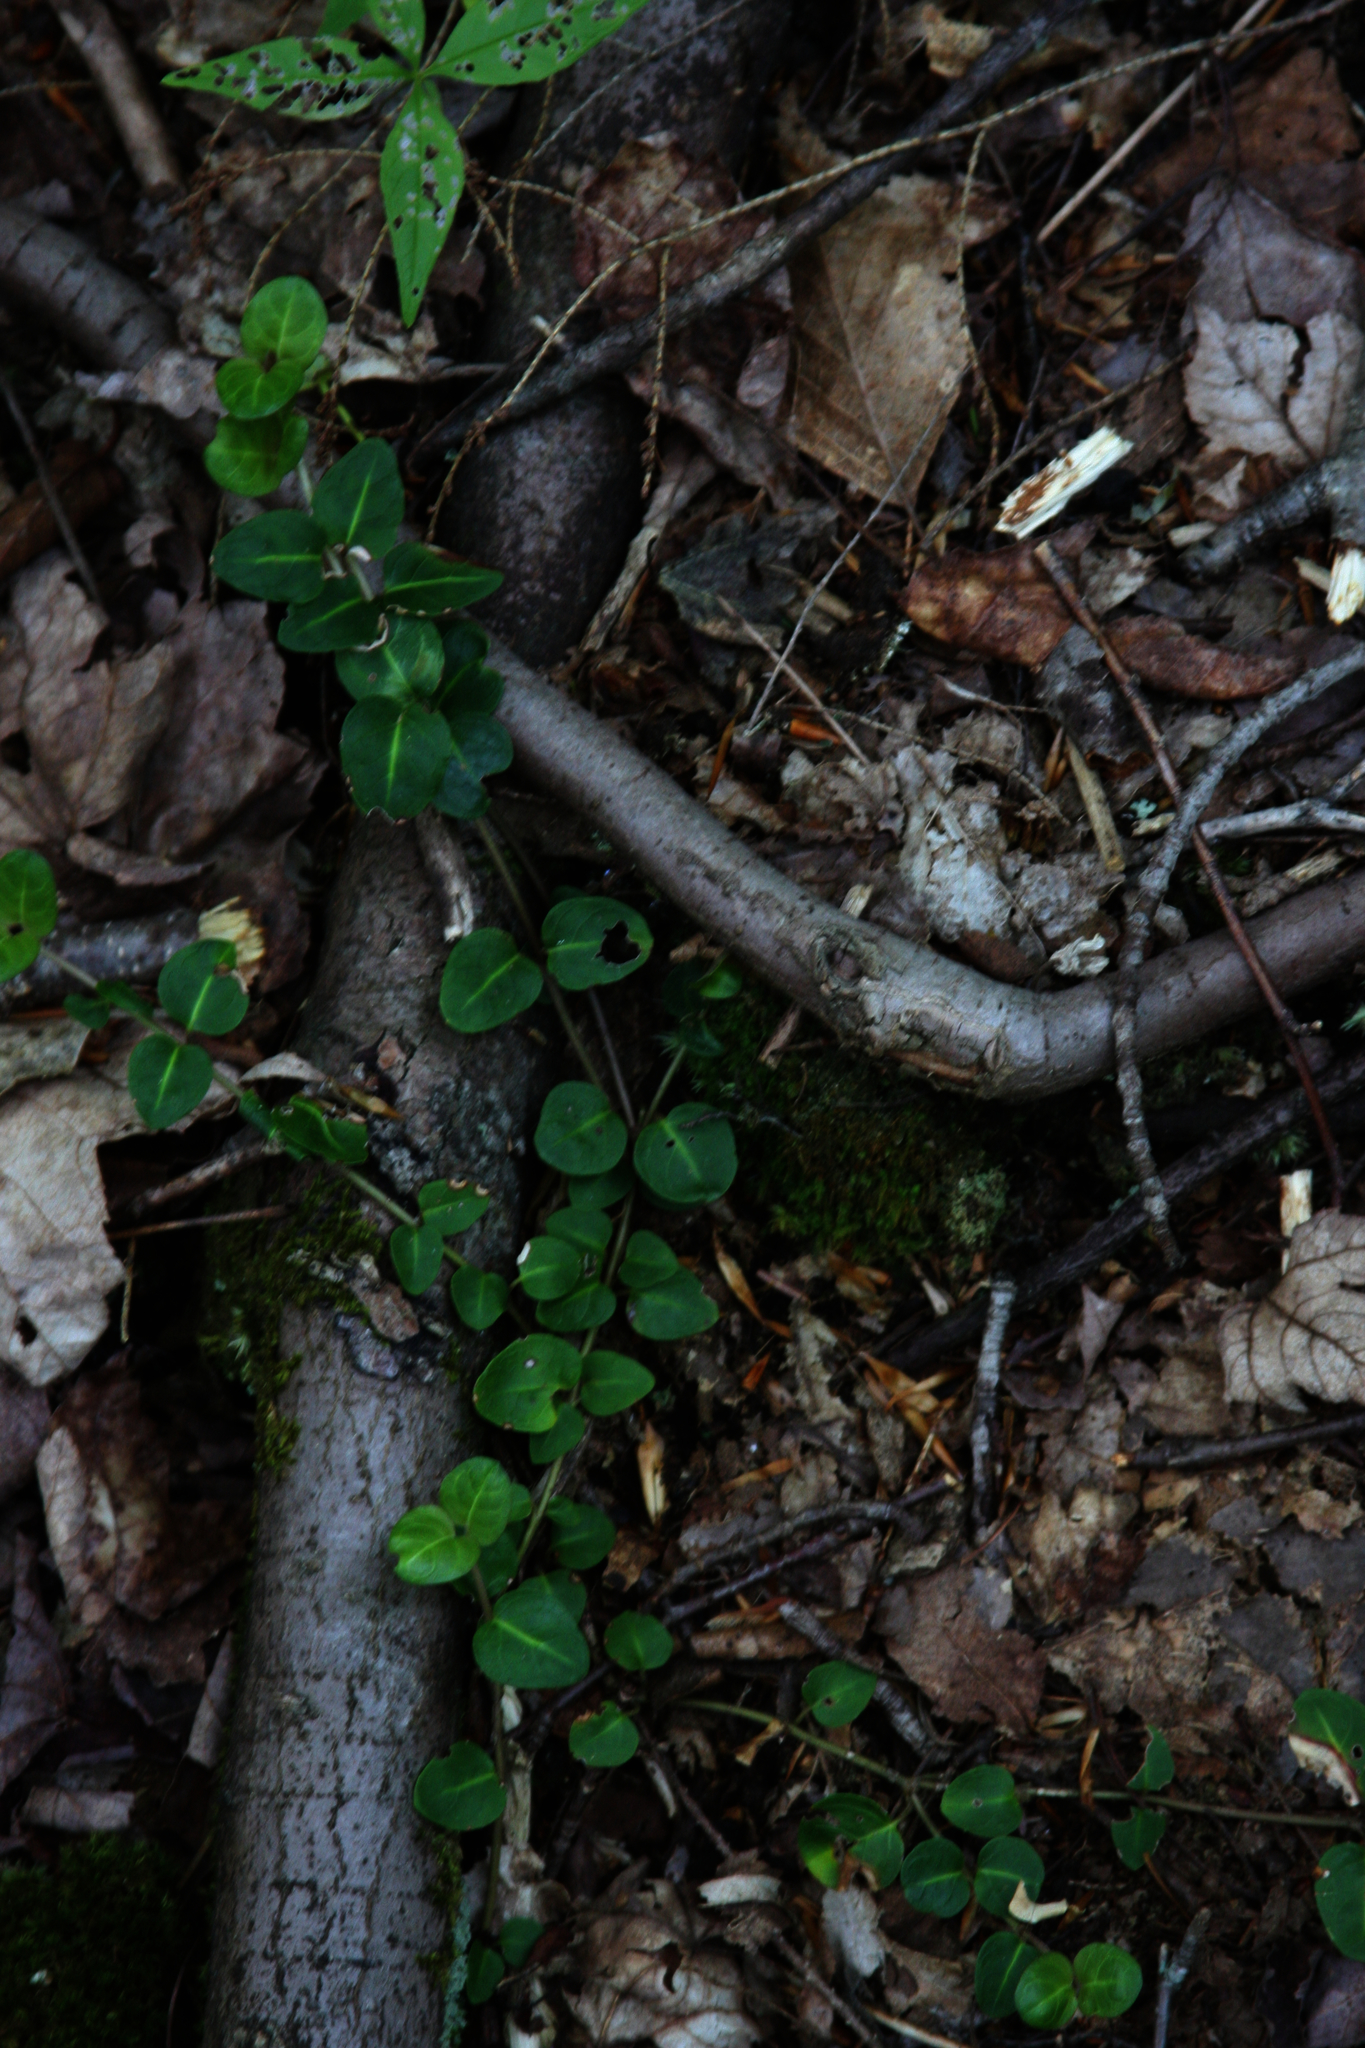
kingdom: Plantae
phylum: Tracheophyta
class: Magnoliopsida
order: Gentianales
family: Rubiaceae
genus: Mitchella
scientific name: Mitchella repens
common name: Partridge-berry
